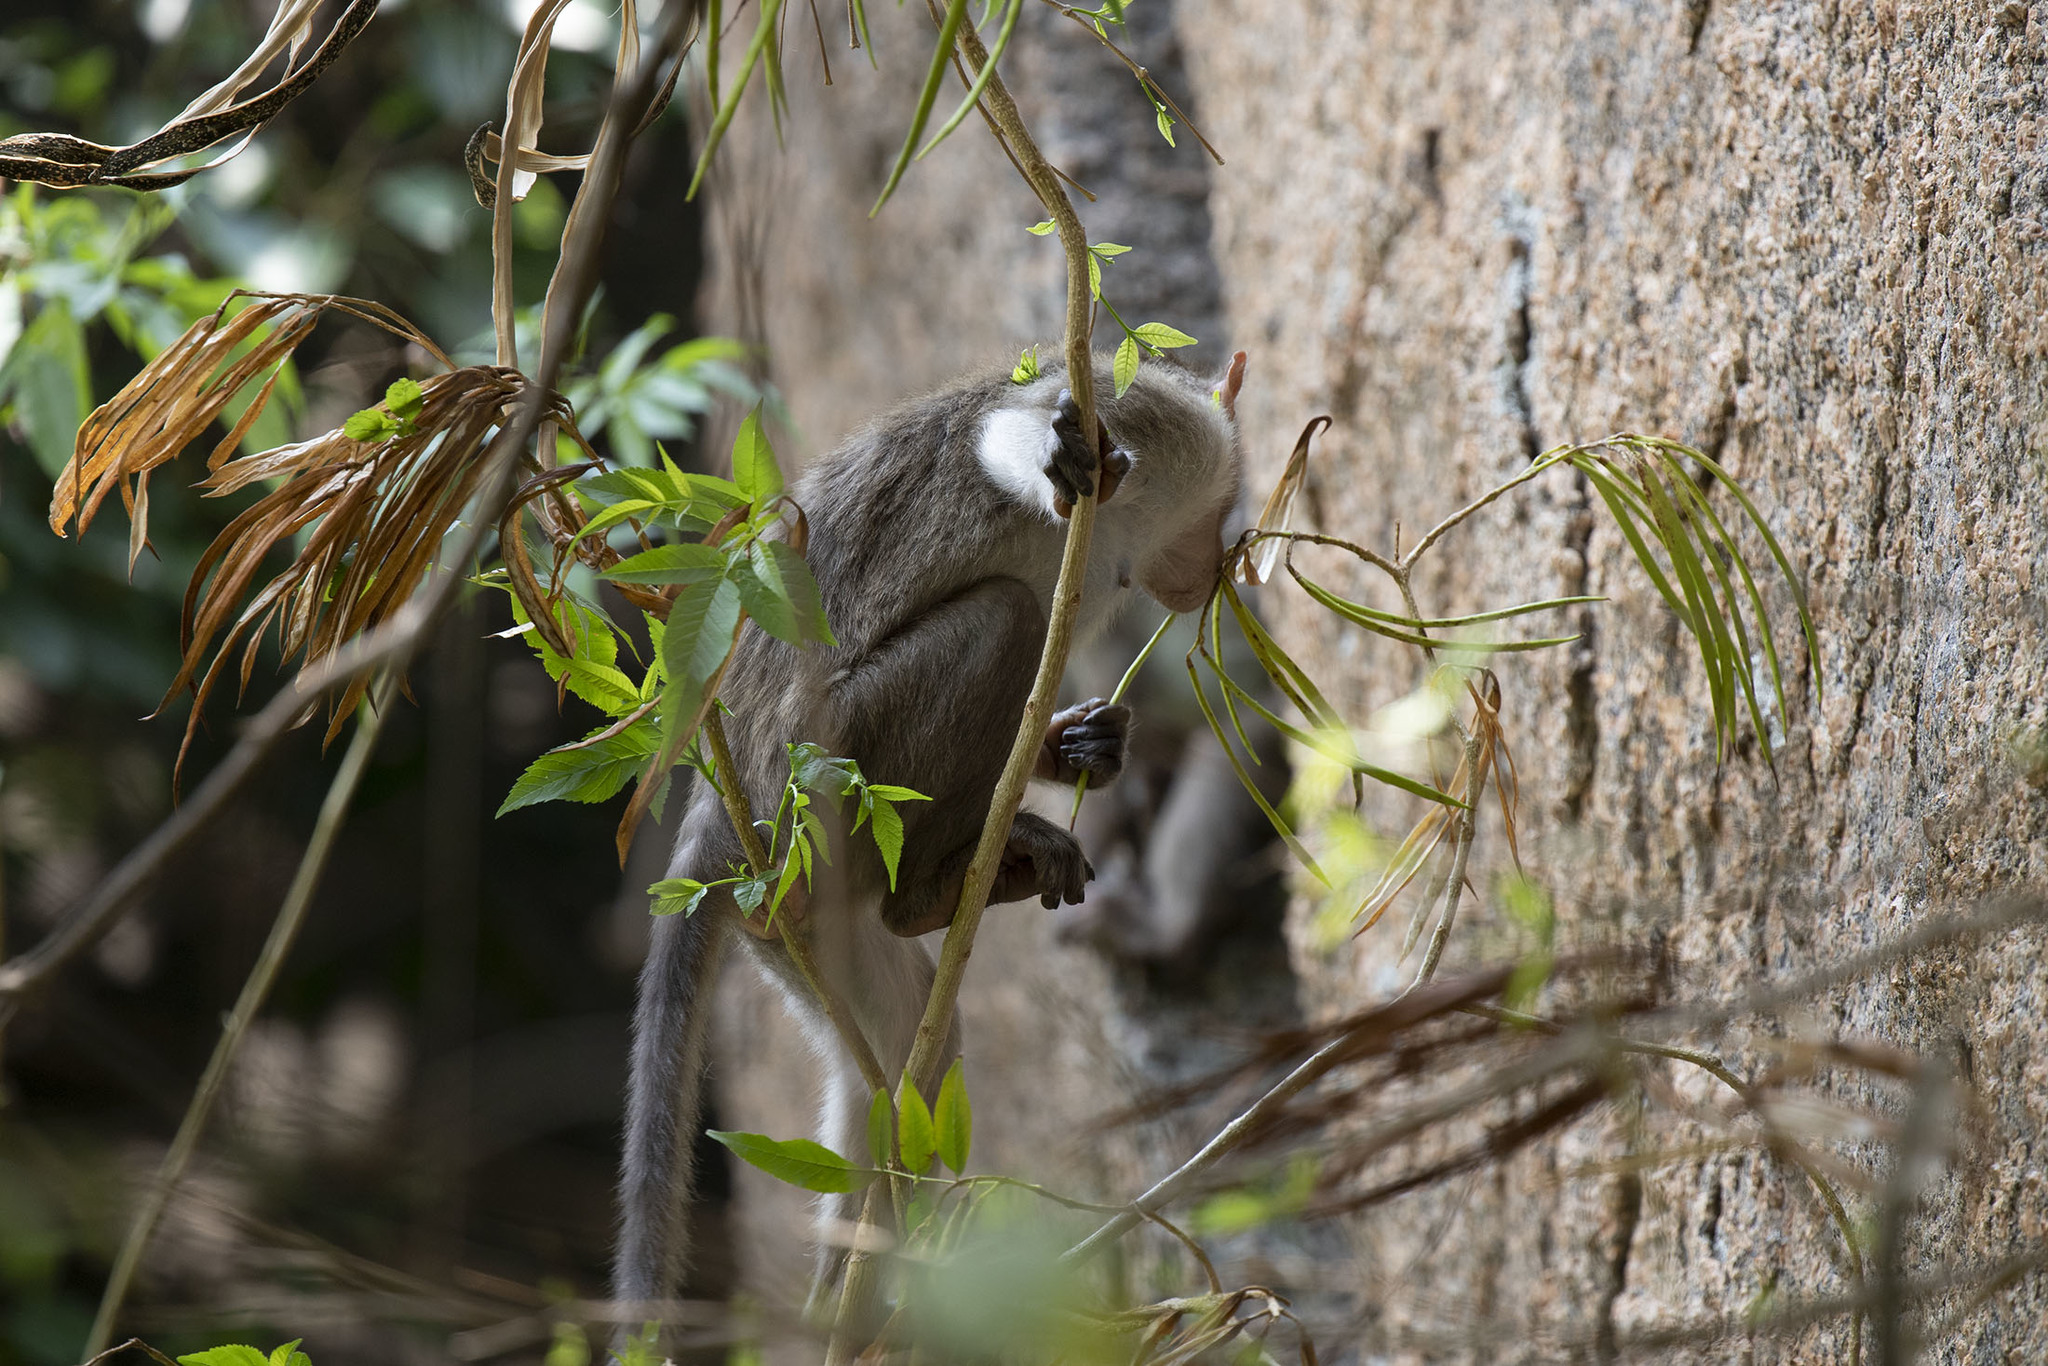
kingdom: Plantae
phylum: Tracheophyta
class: Magnoliopsida
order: Lamiales
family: Bignoniaceae
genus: Tecoma
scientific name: Tecoma stans
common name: Yellow trumpetbush
